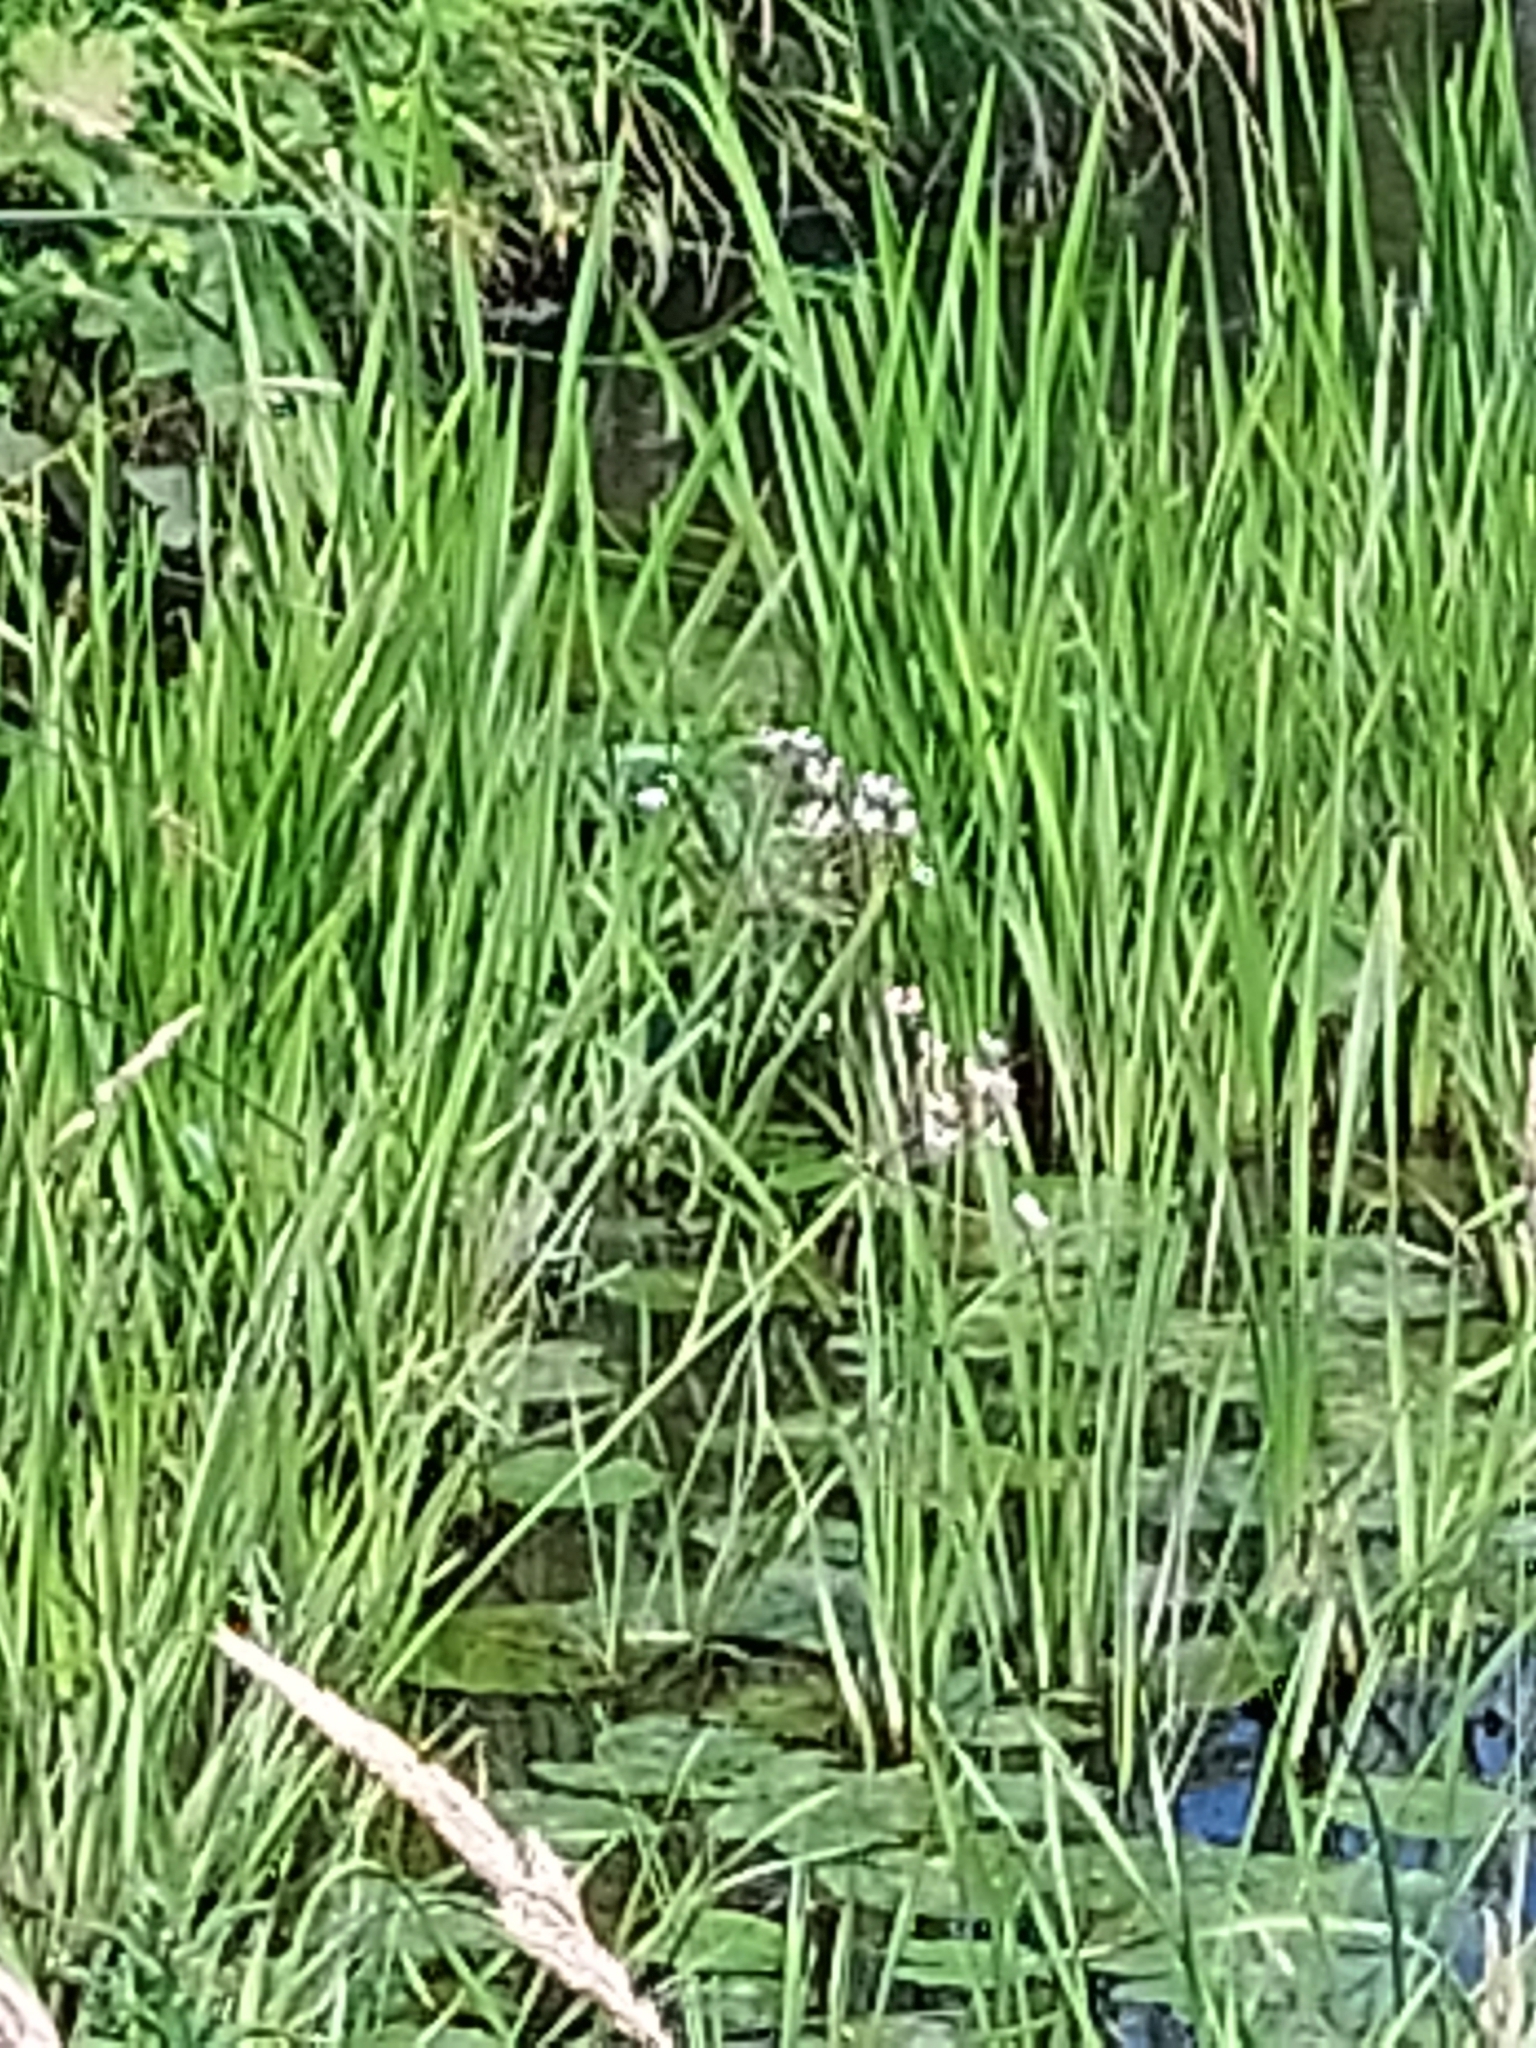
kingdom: Plantae
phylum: Tracheophyta
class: Liliopsida
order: Alismatales
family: Butomaceae
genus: Butomus
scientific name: Butomus umbellatus
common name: Flowering-rush
